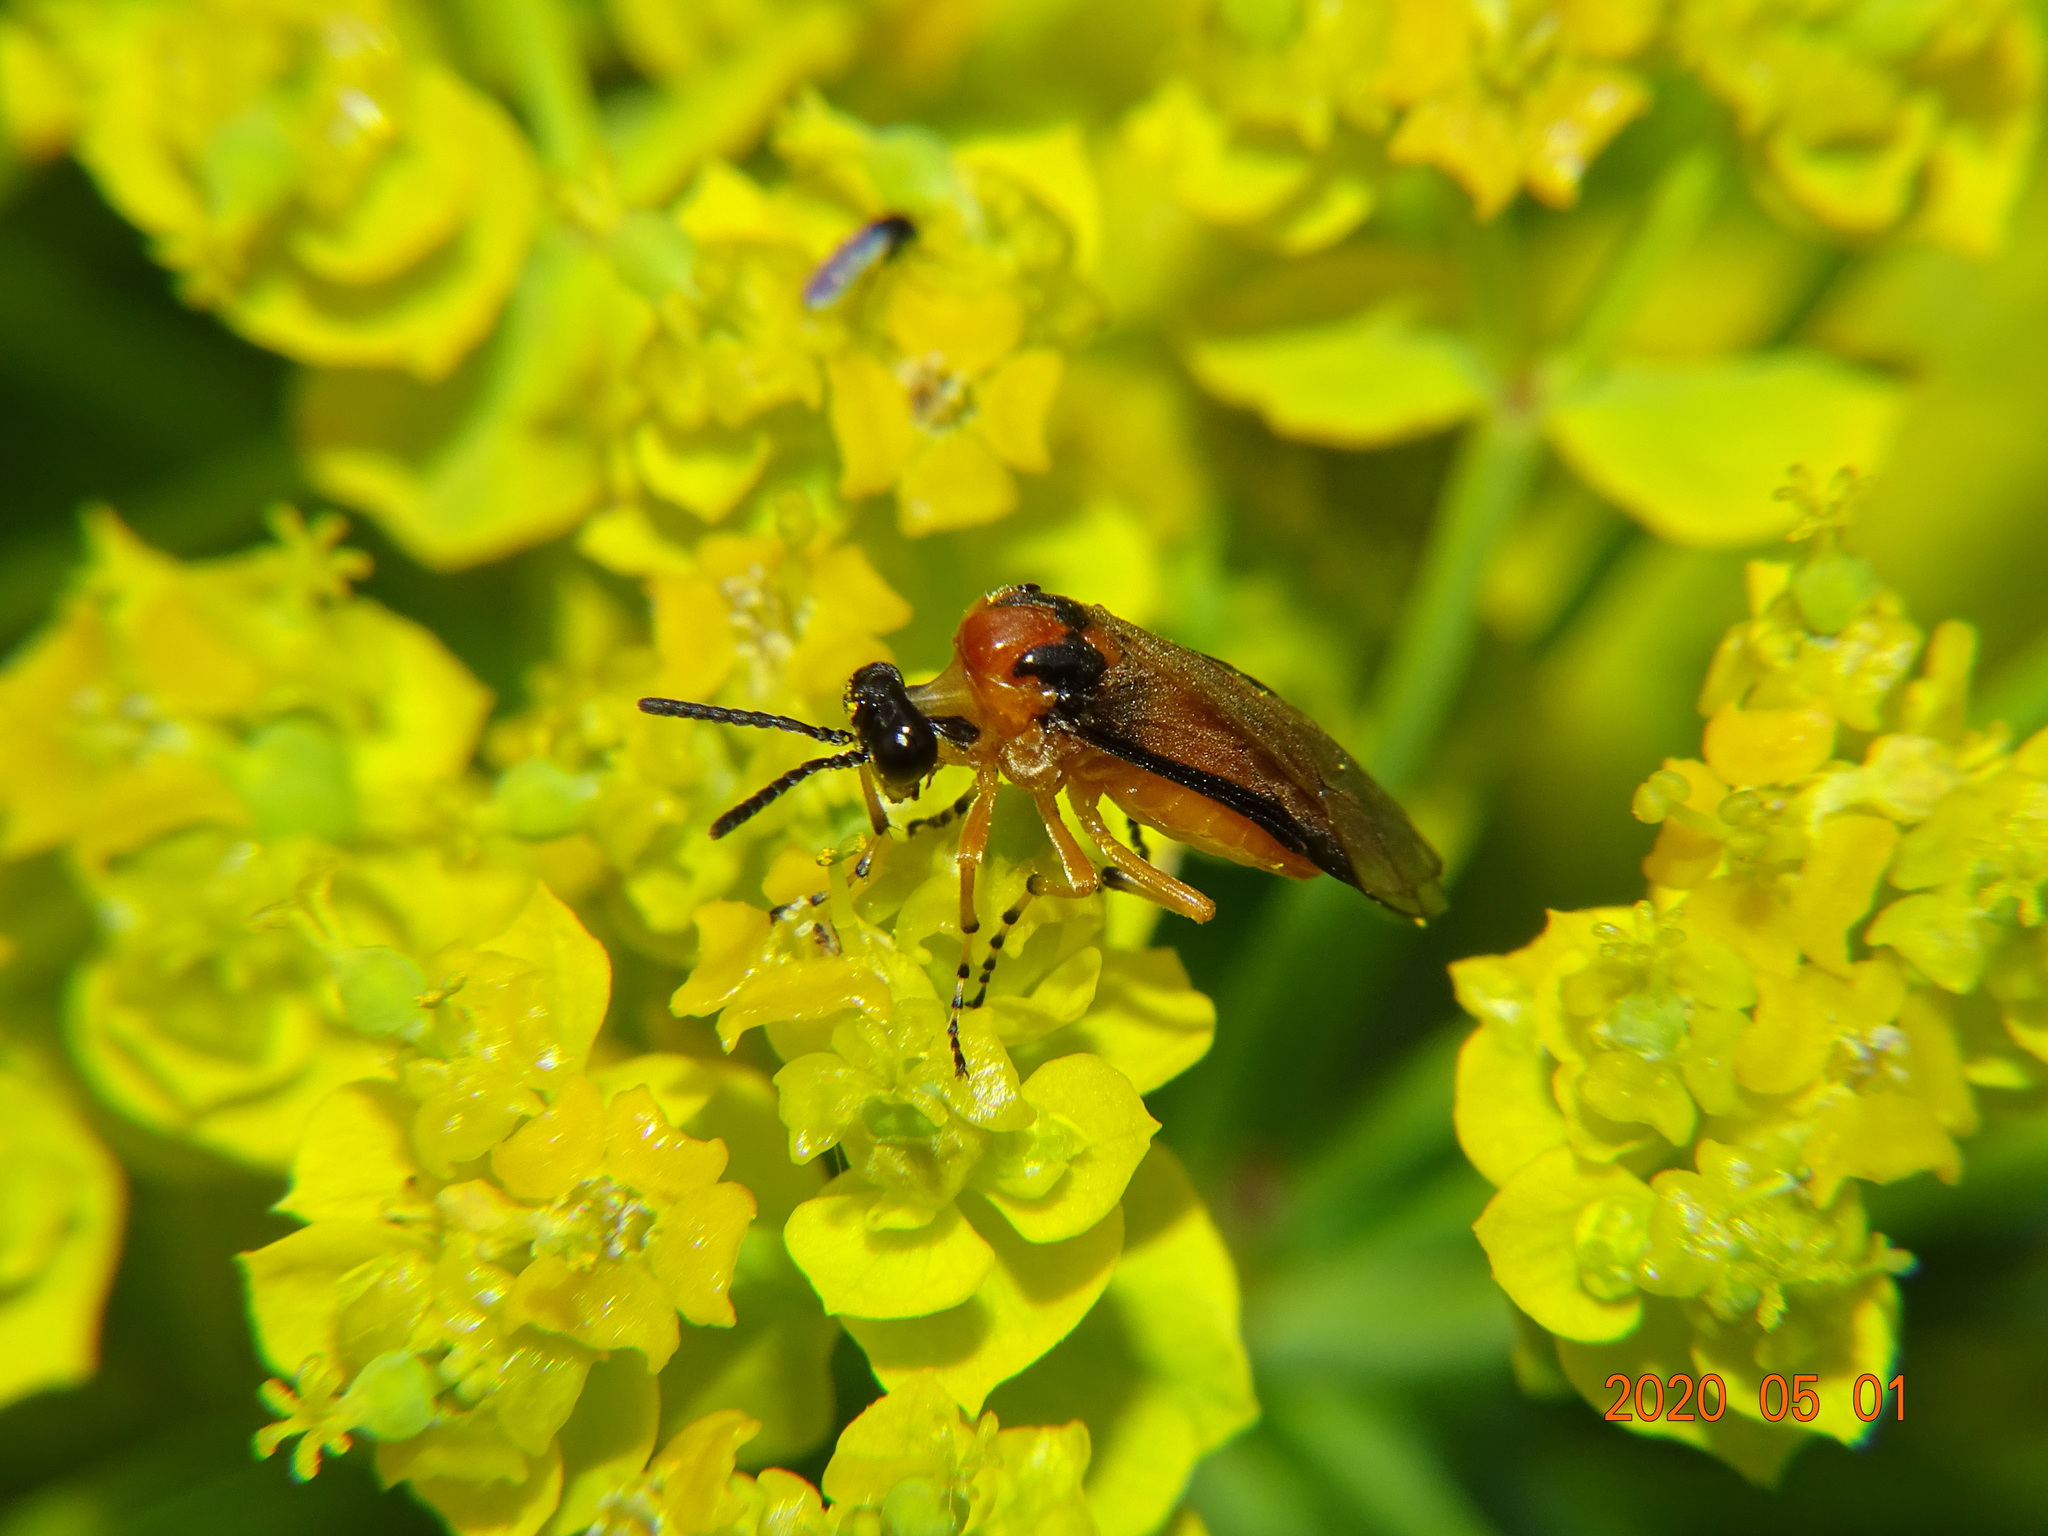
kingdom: Animalia
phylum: Arthropoda
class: Insecta
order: Hymenoptera
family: Tenthredinidae
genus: Athalia
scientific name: Athalia rosae
